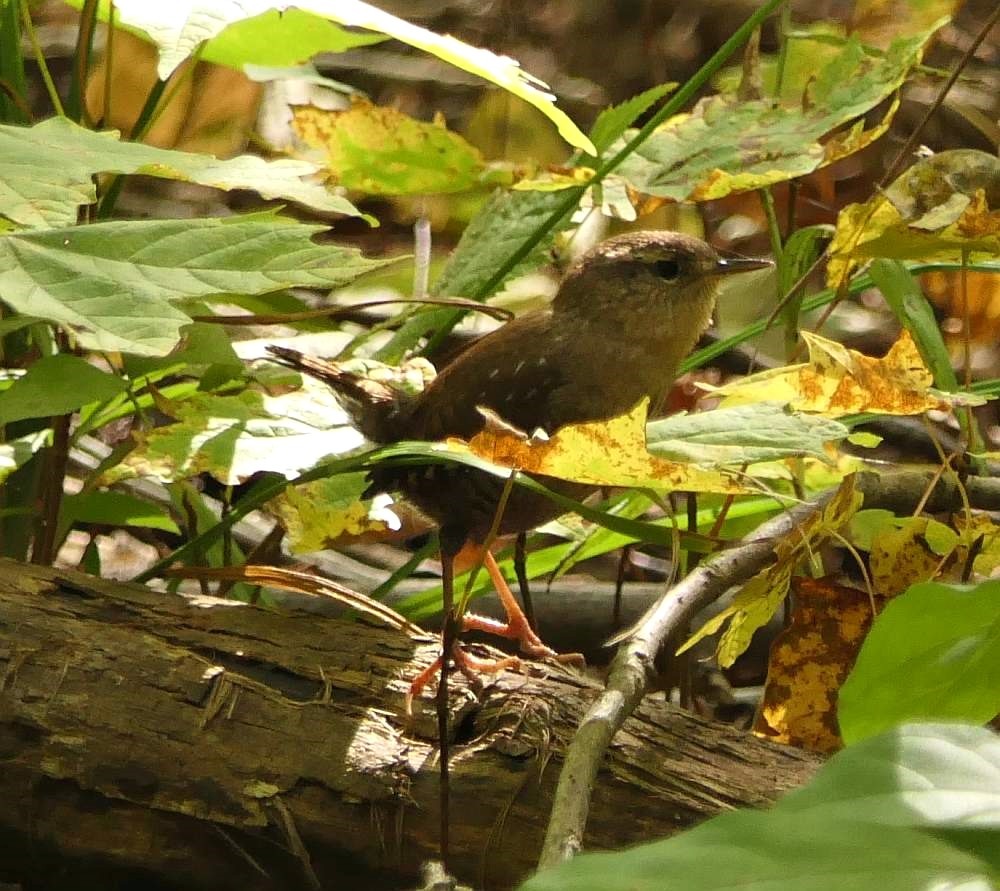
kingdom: Animalia
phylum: Chordata
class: Aves
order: Passeriformes
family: Troglodytidae
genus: Troglodytes
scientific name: Troglodytes hiemalis
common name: Winter wren
